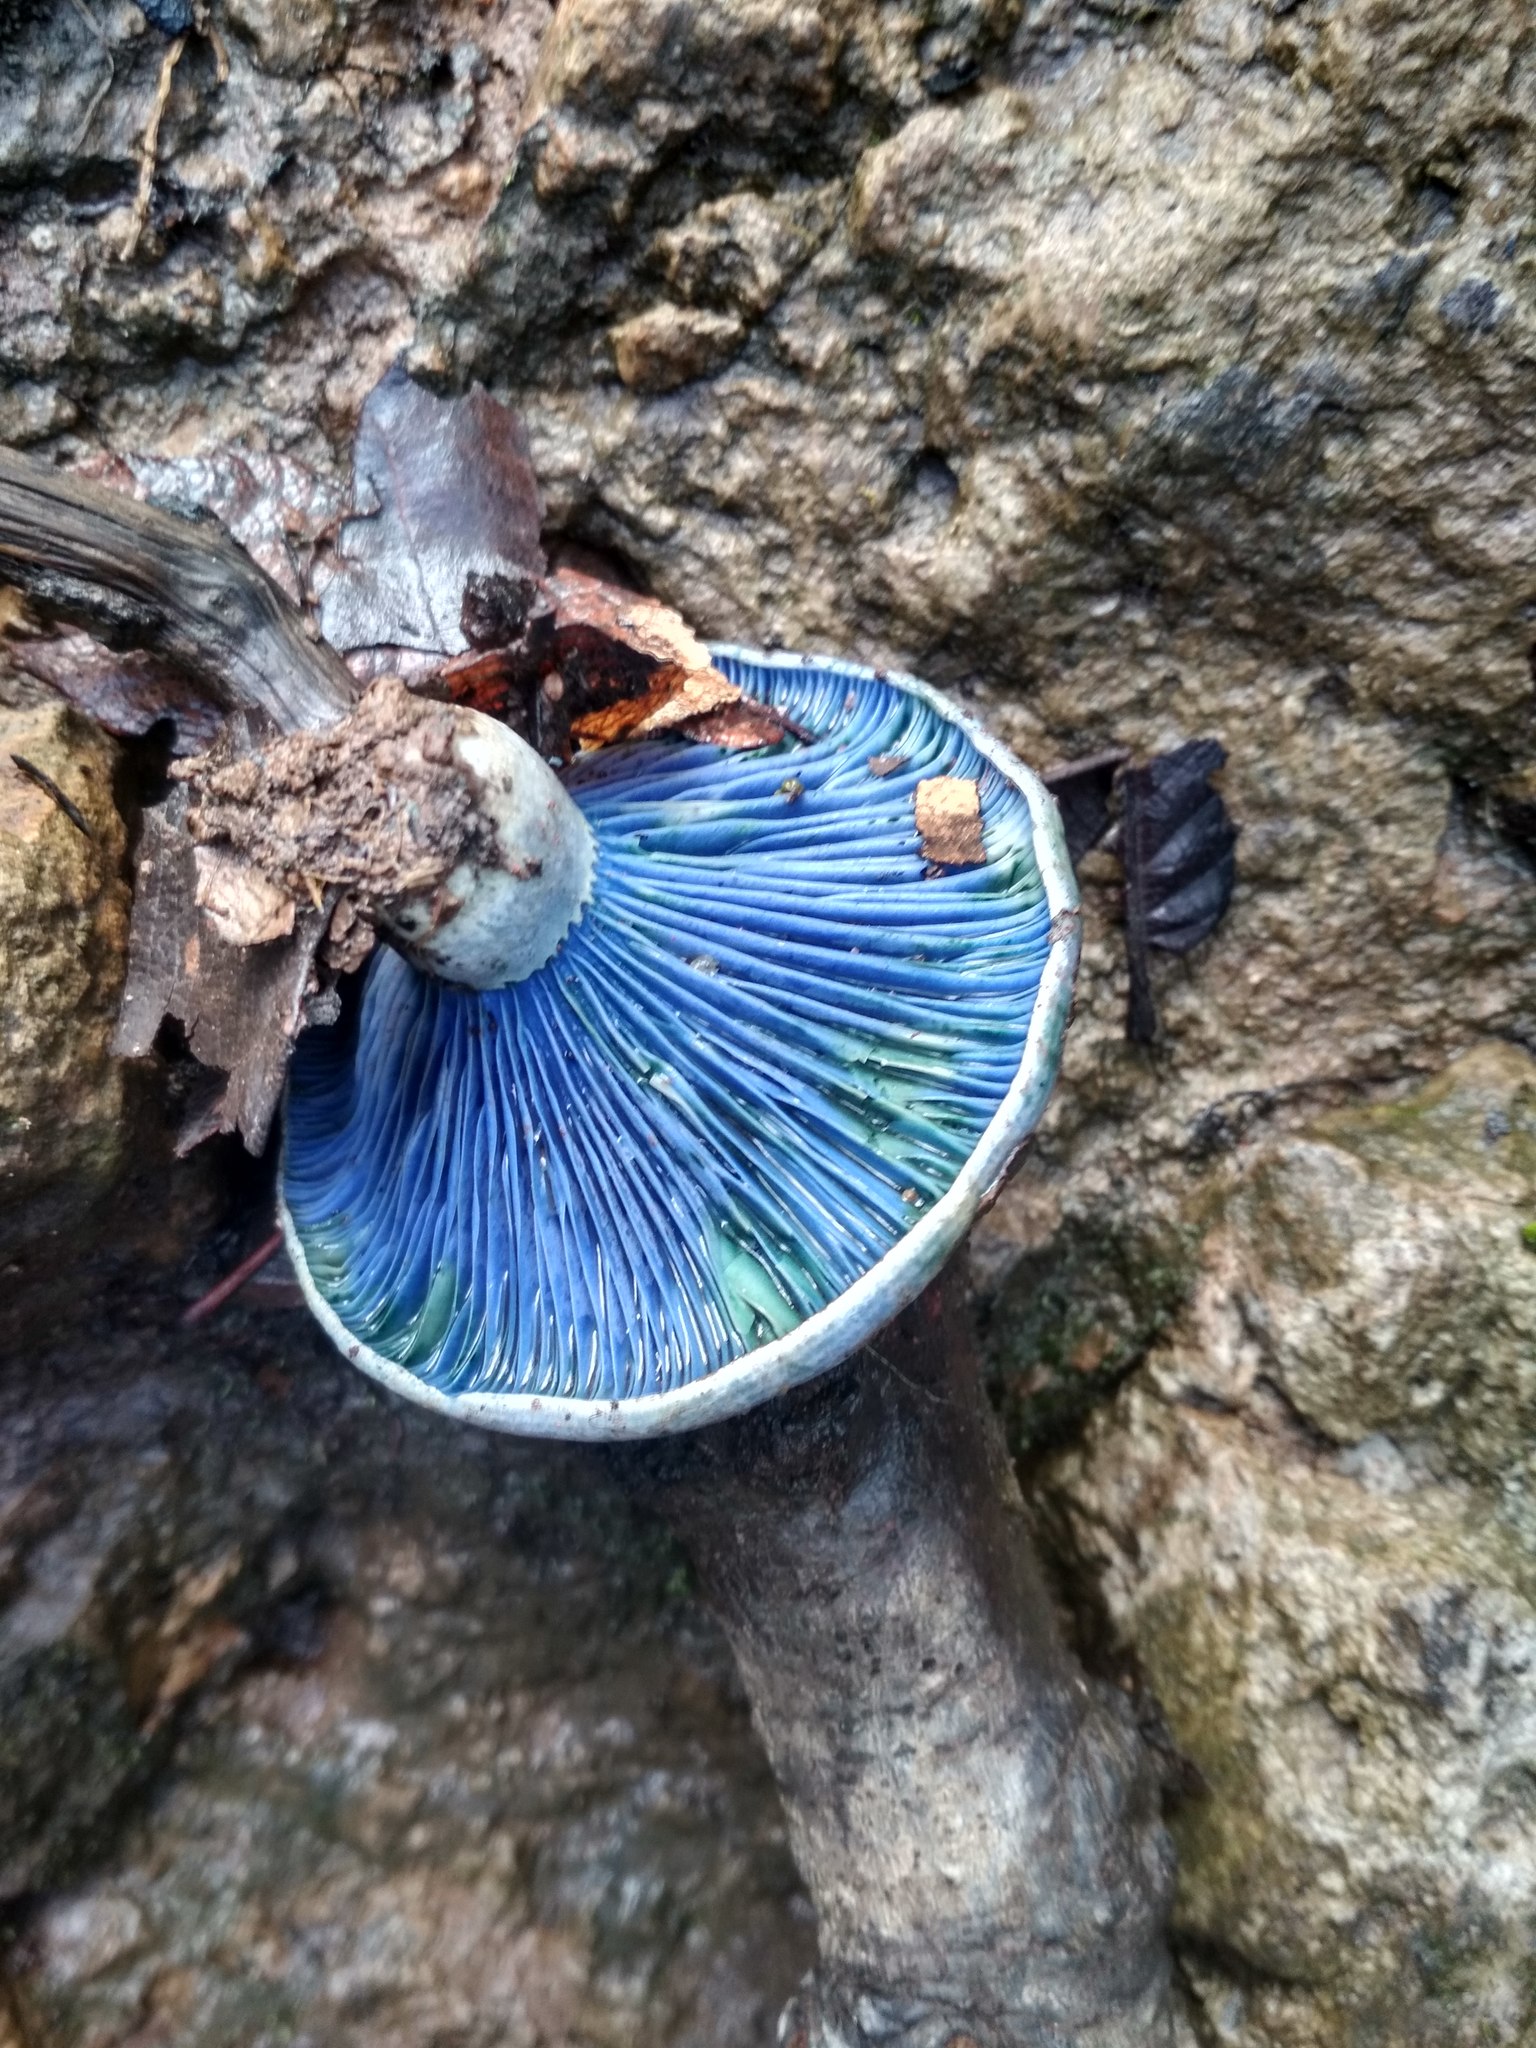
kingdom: Fungi
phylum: Basidiomycota
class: Agaricomycetes
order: Russulales
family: Russulaceae
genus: Lactarius
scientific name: Lactarius indigo
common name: Indigo milk cap
